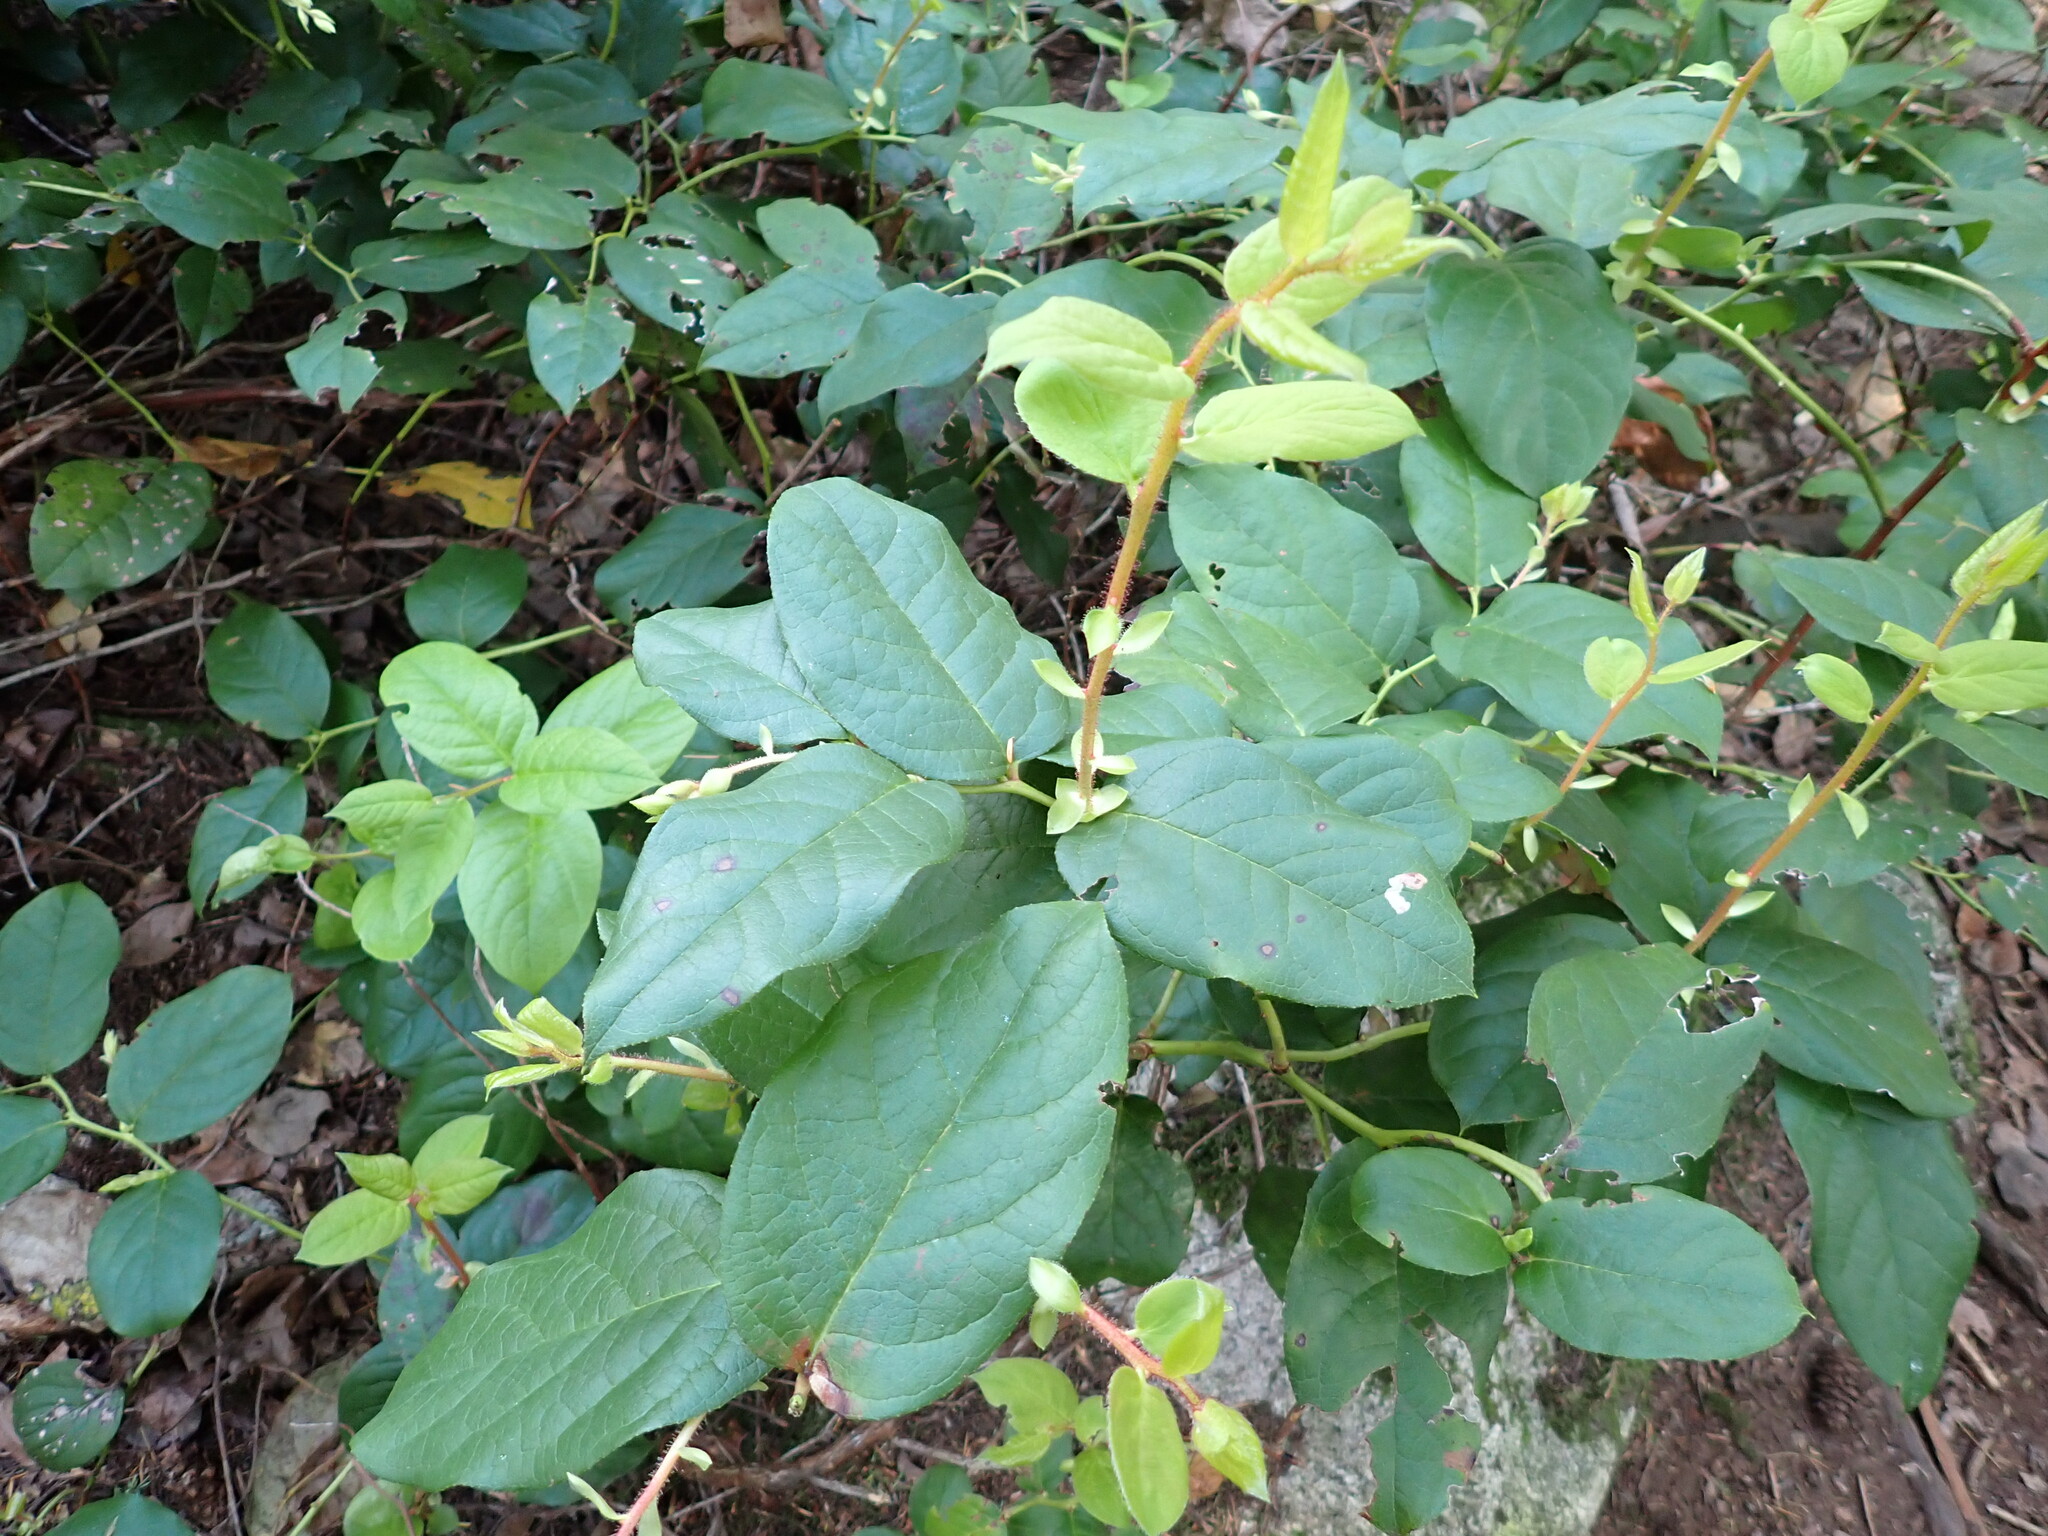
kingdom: Plantae
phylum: Tracheophyta
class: Magnoliopsida
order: Ericales
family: Ericaceae
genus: Gaultheria
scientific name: Gaultheria shallon
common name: Shallon
